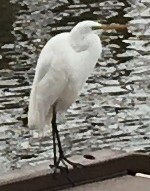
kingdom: Animalia
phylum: Chordata
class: Aves
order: Pelecaniformes
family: Ardeidae
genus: Ardea
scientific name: Ardea alba
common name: Great egret
